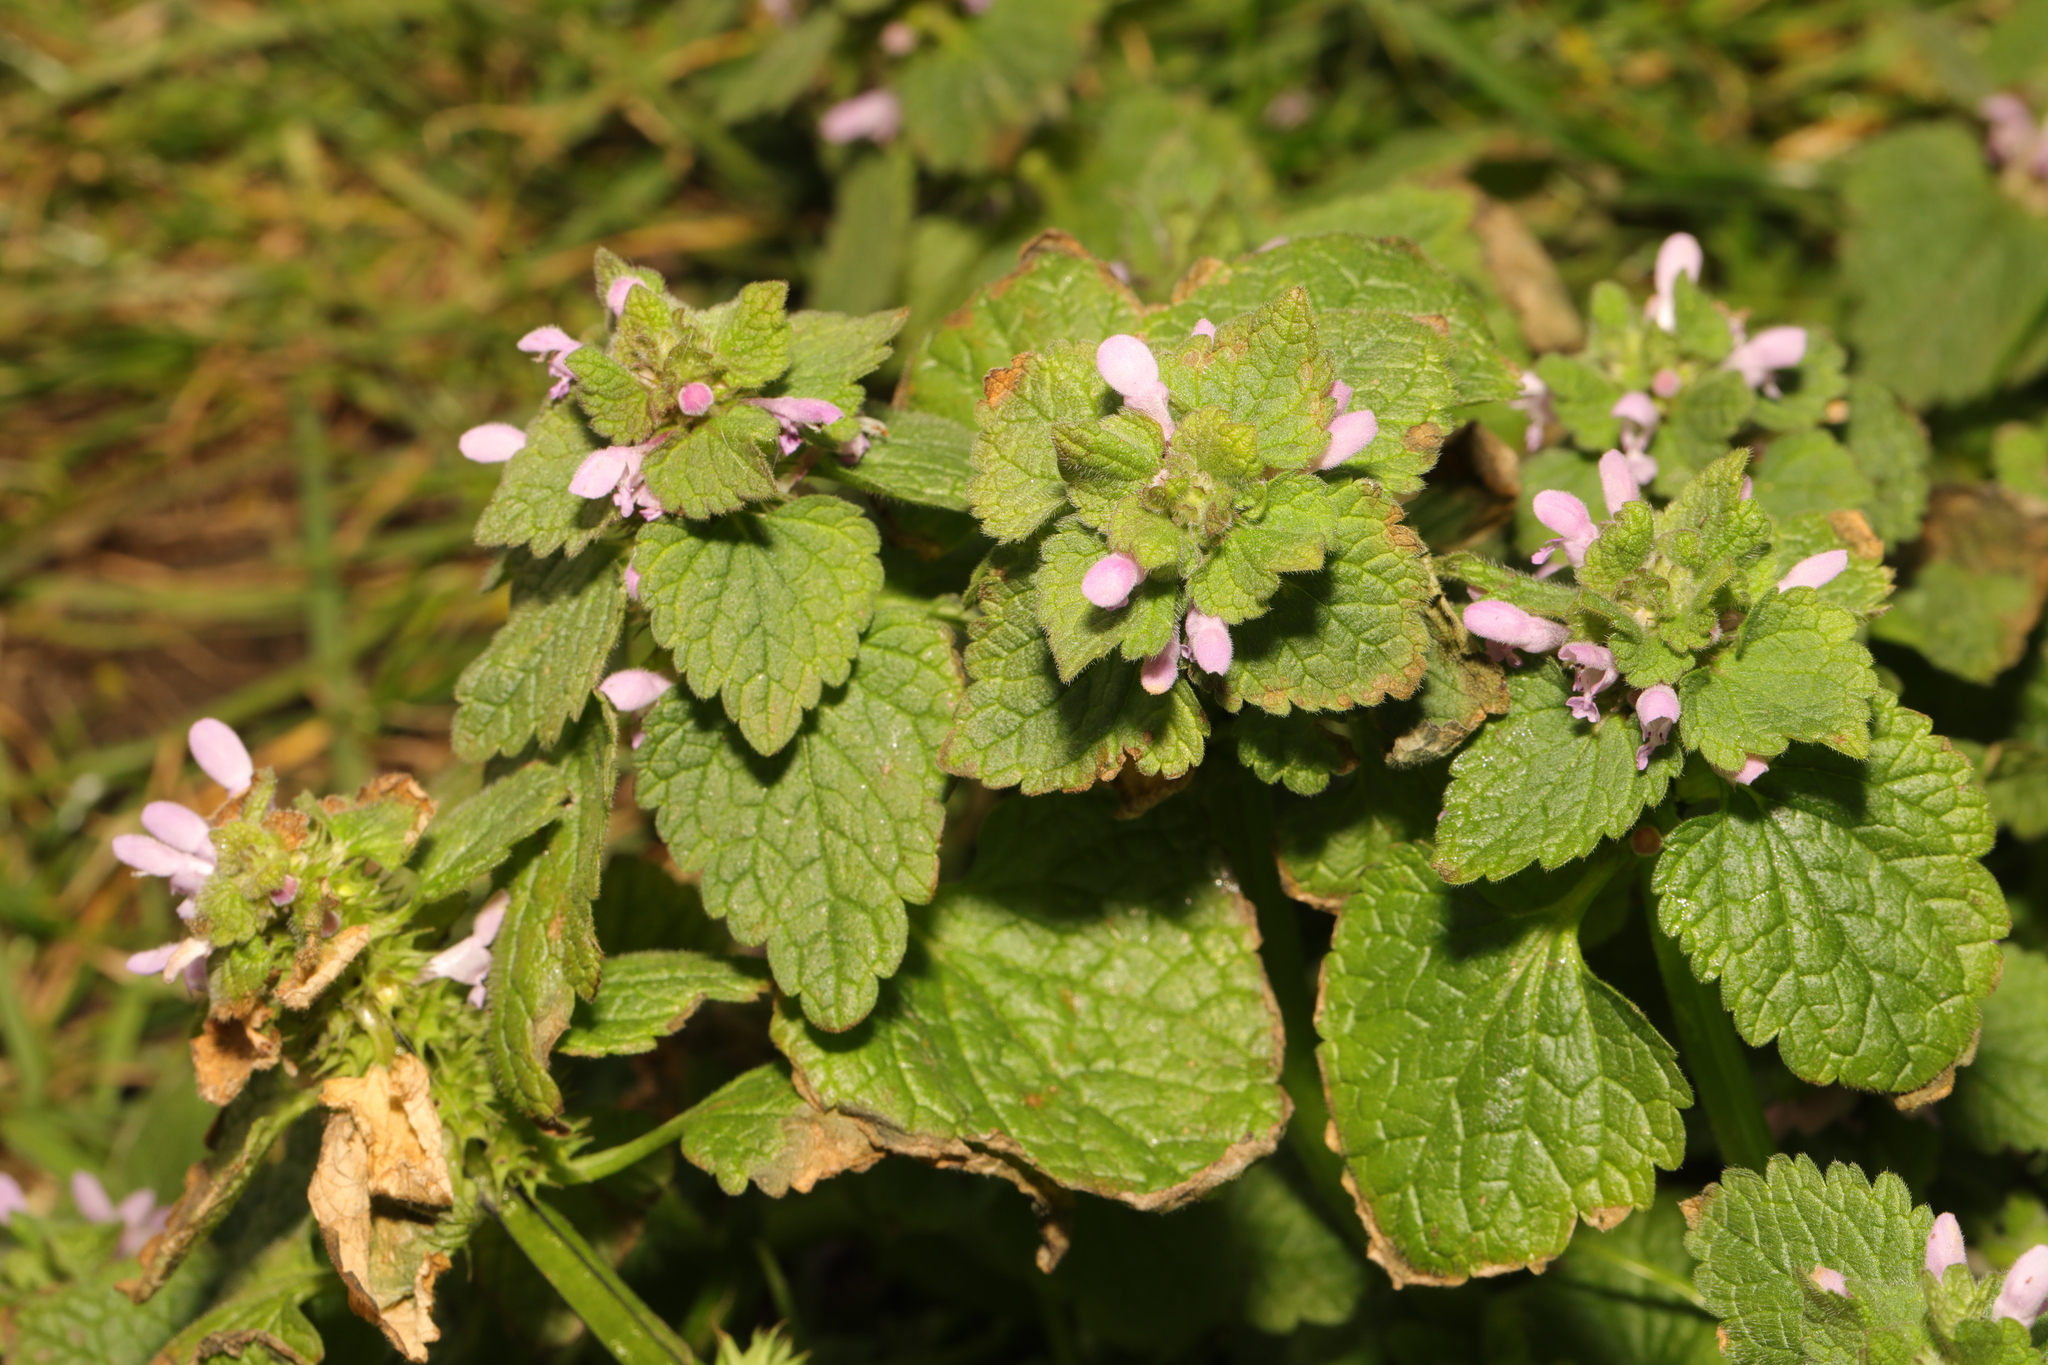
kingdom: Plantae
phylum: Tracheophyta
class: Magnoliopsida
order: Lamiales
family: Lamiaceae
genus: Lamium
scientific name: Lamium purpureum
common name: Red dead-nettle
